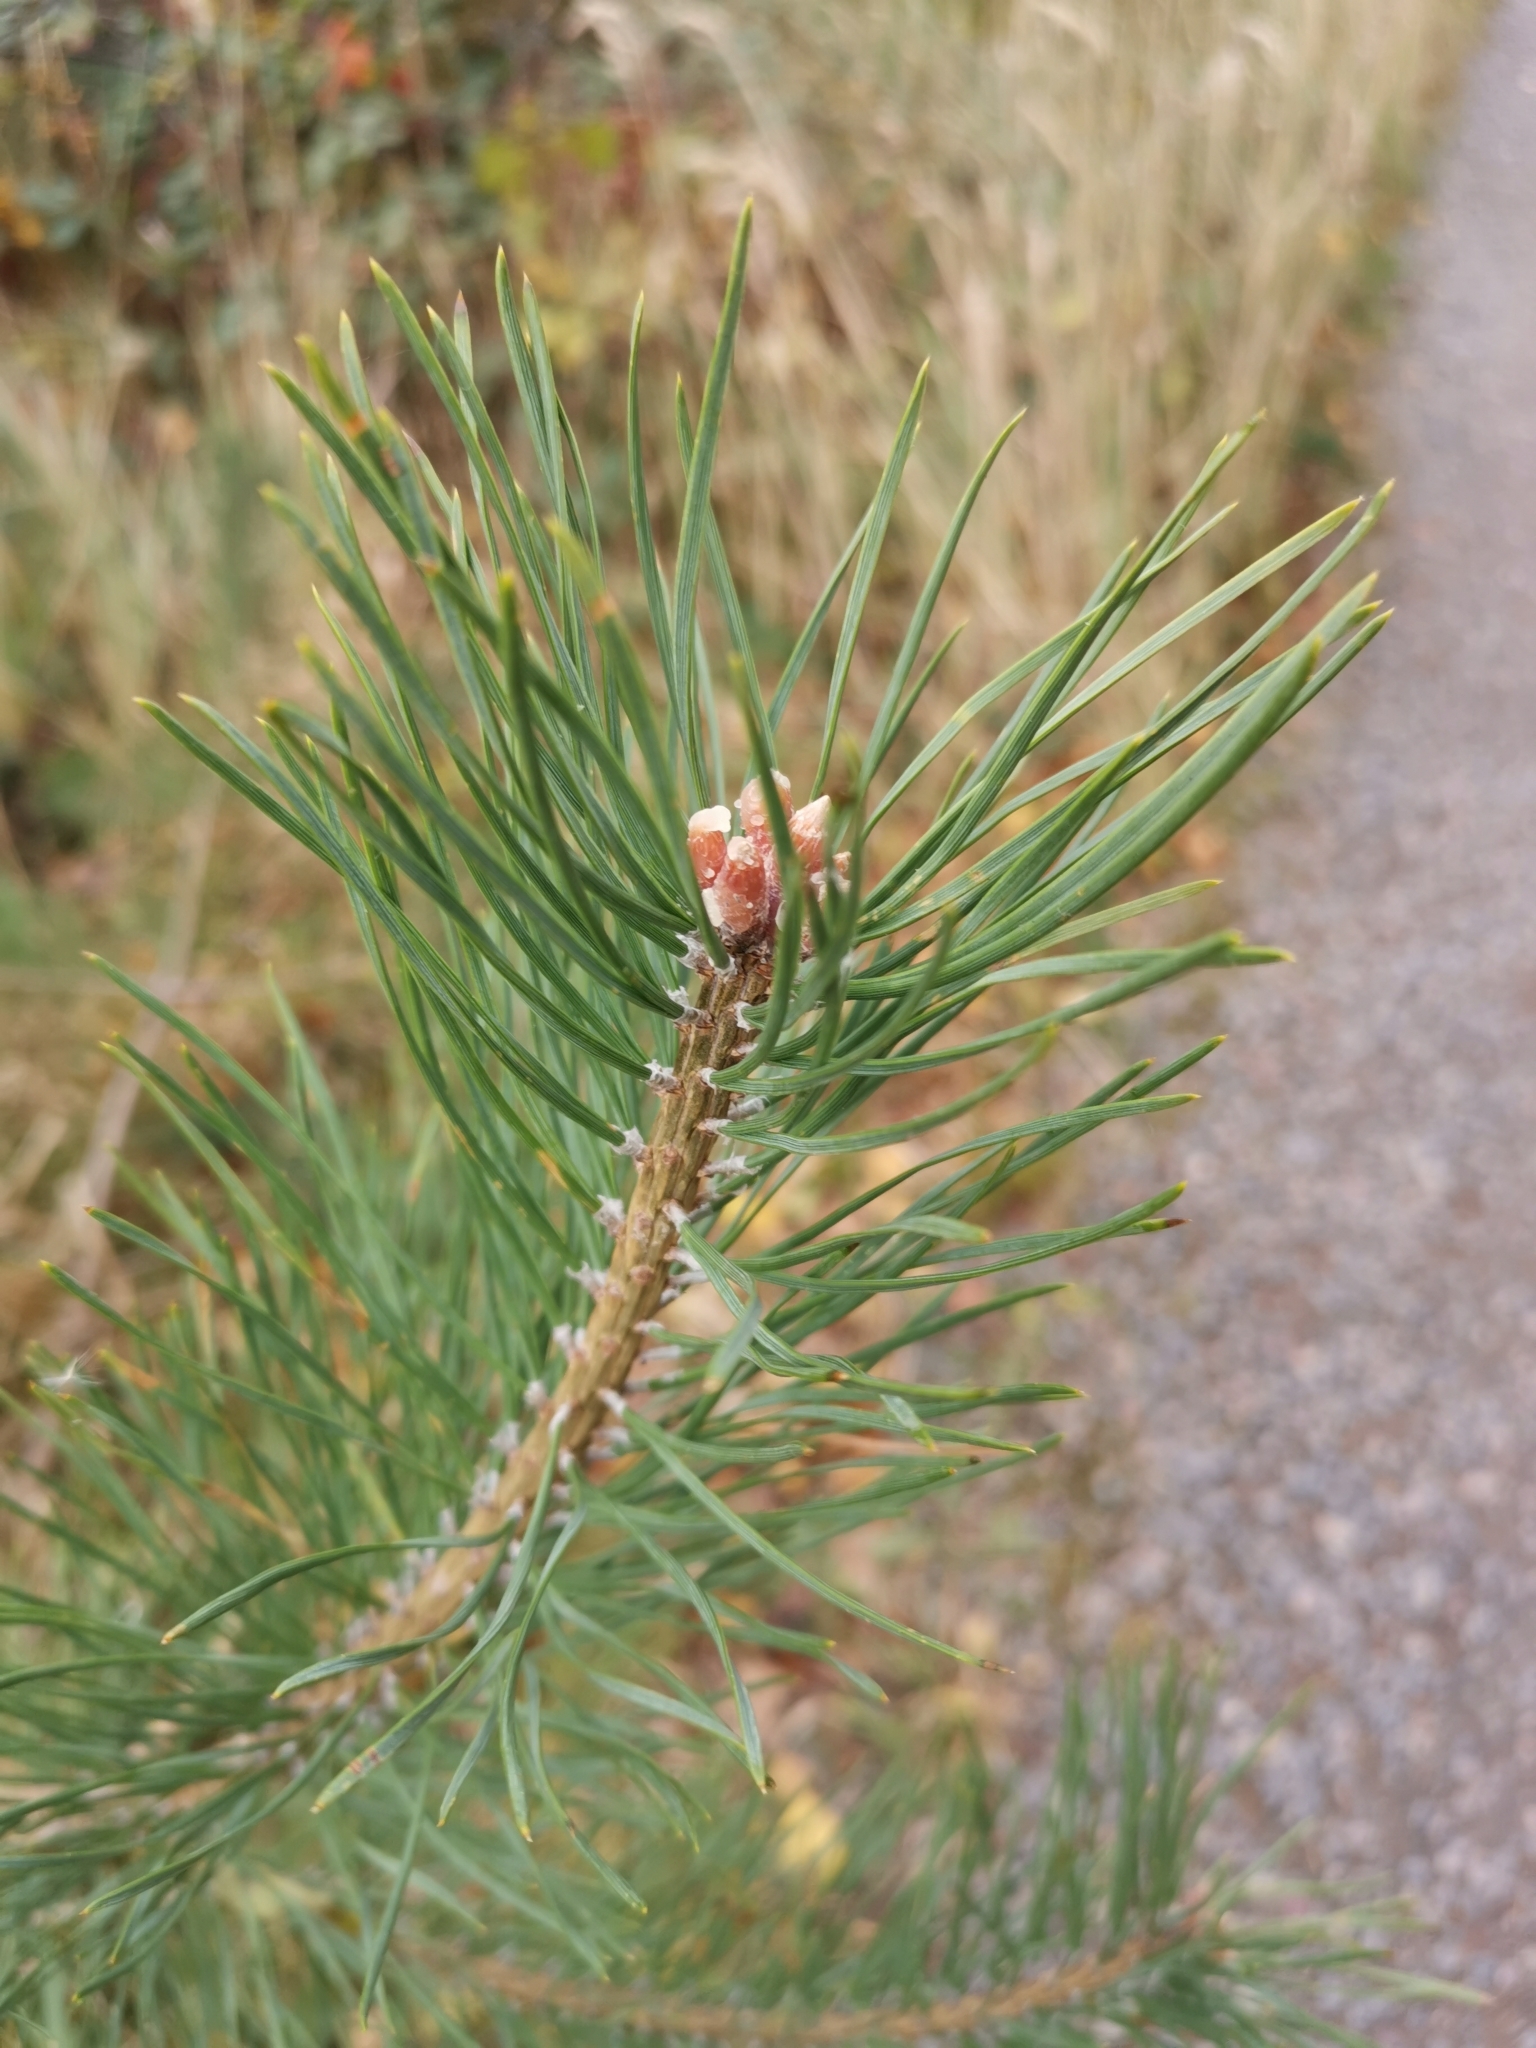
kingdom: Plantae
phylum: Tracheophyta
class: Pinopsida
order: Pinales
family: Pinaceae
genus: Pinus
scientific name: Pinus sylvestris
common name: Scots pine
